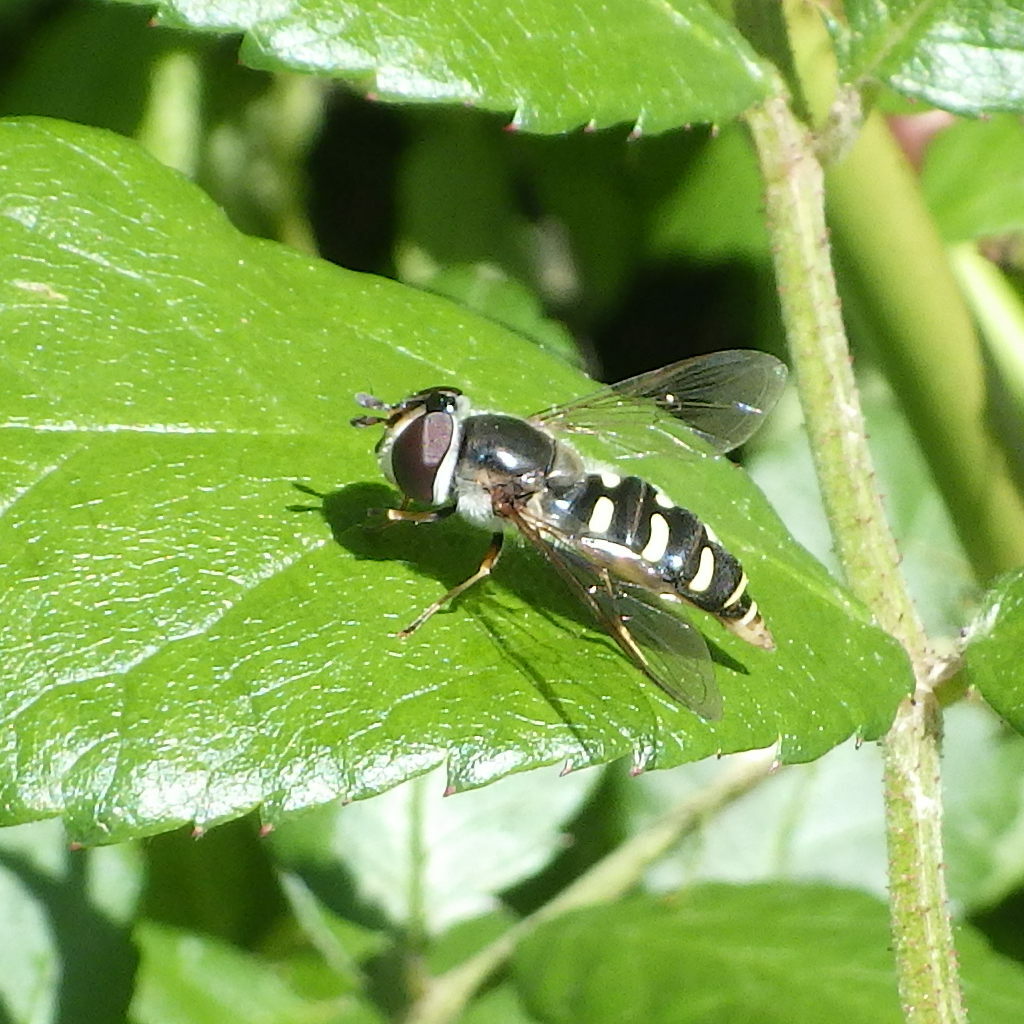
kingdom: Animalia
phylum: Arthropoda
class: Insecta
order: Diptera
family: Syrphidae
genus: Eupeodes
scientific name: Eupeodes perplexus
